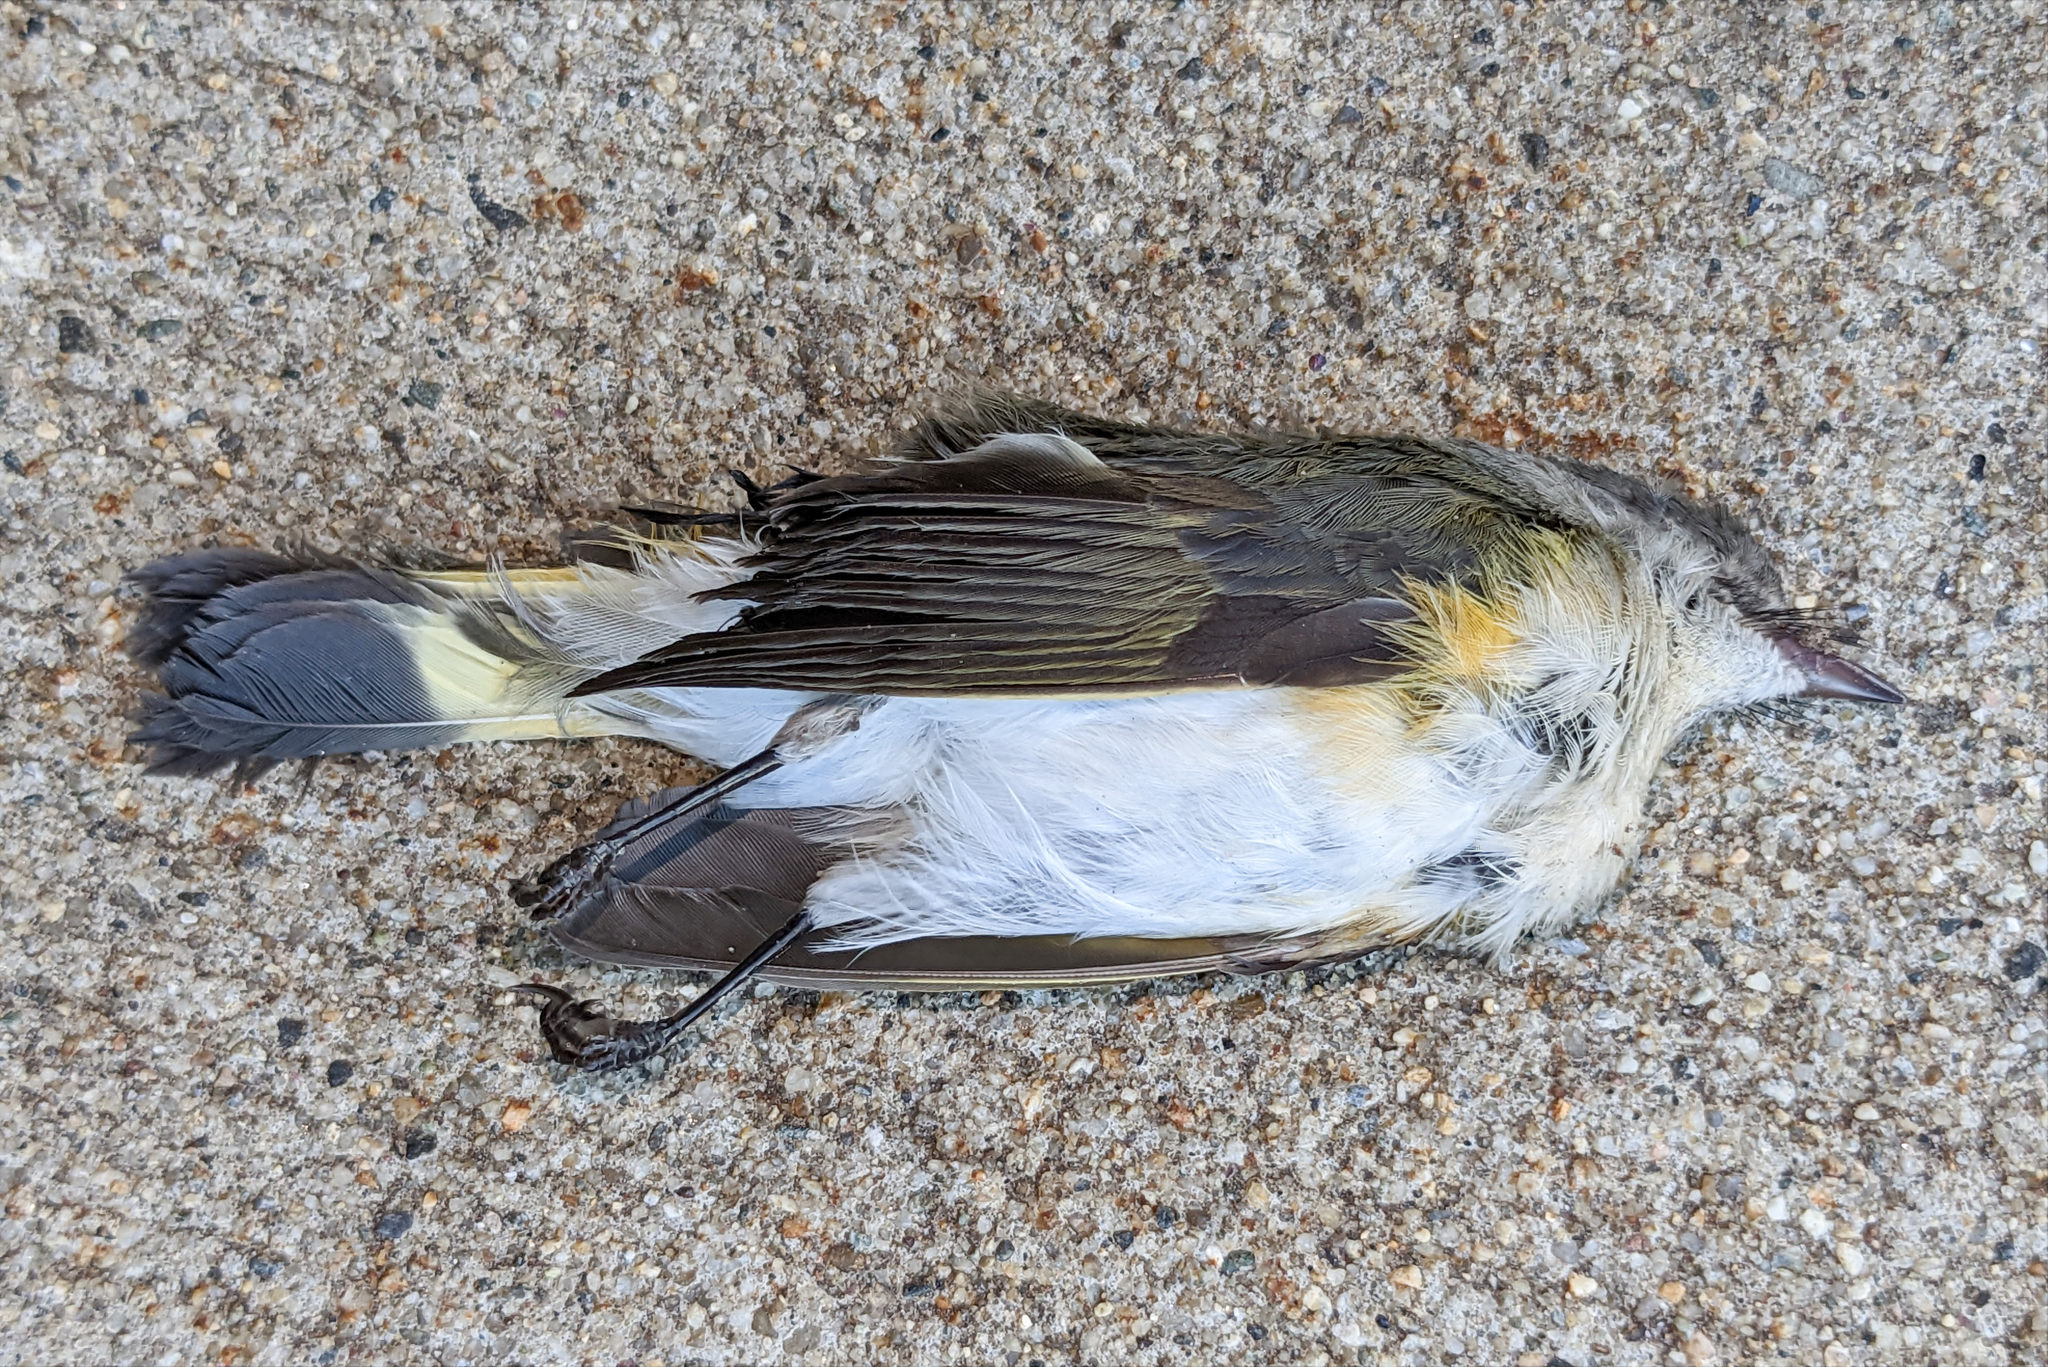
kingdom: Animalia
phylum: Chordata
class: Aves
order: Passeriformes
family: Parulidae
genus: Setophaga
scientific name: Setophaga ruticilla
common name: American redstart
